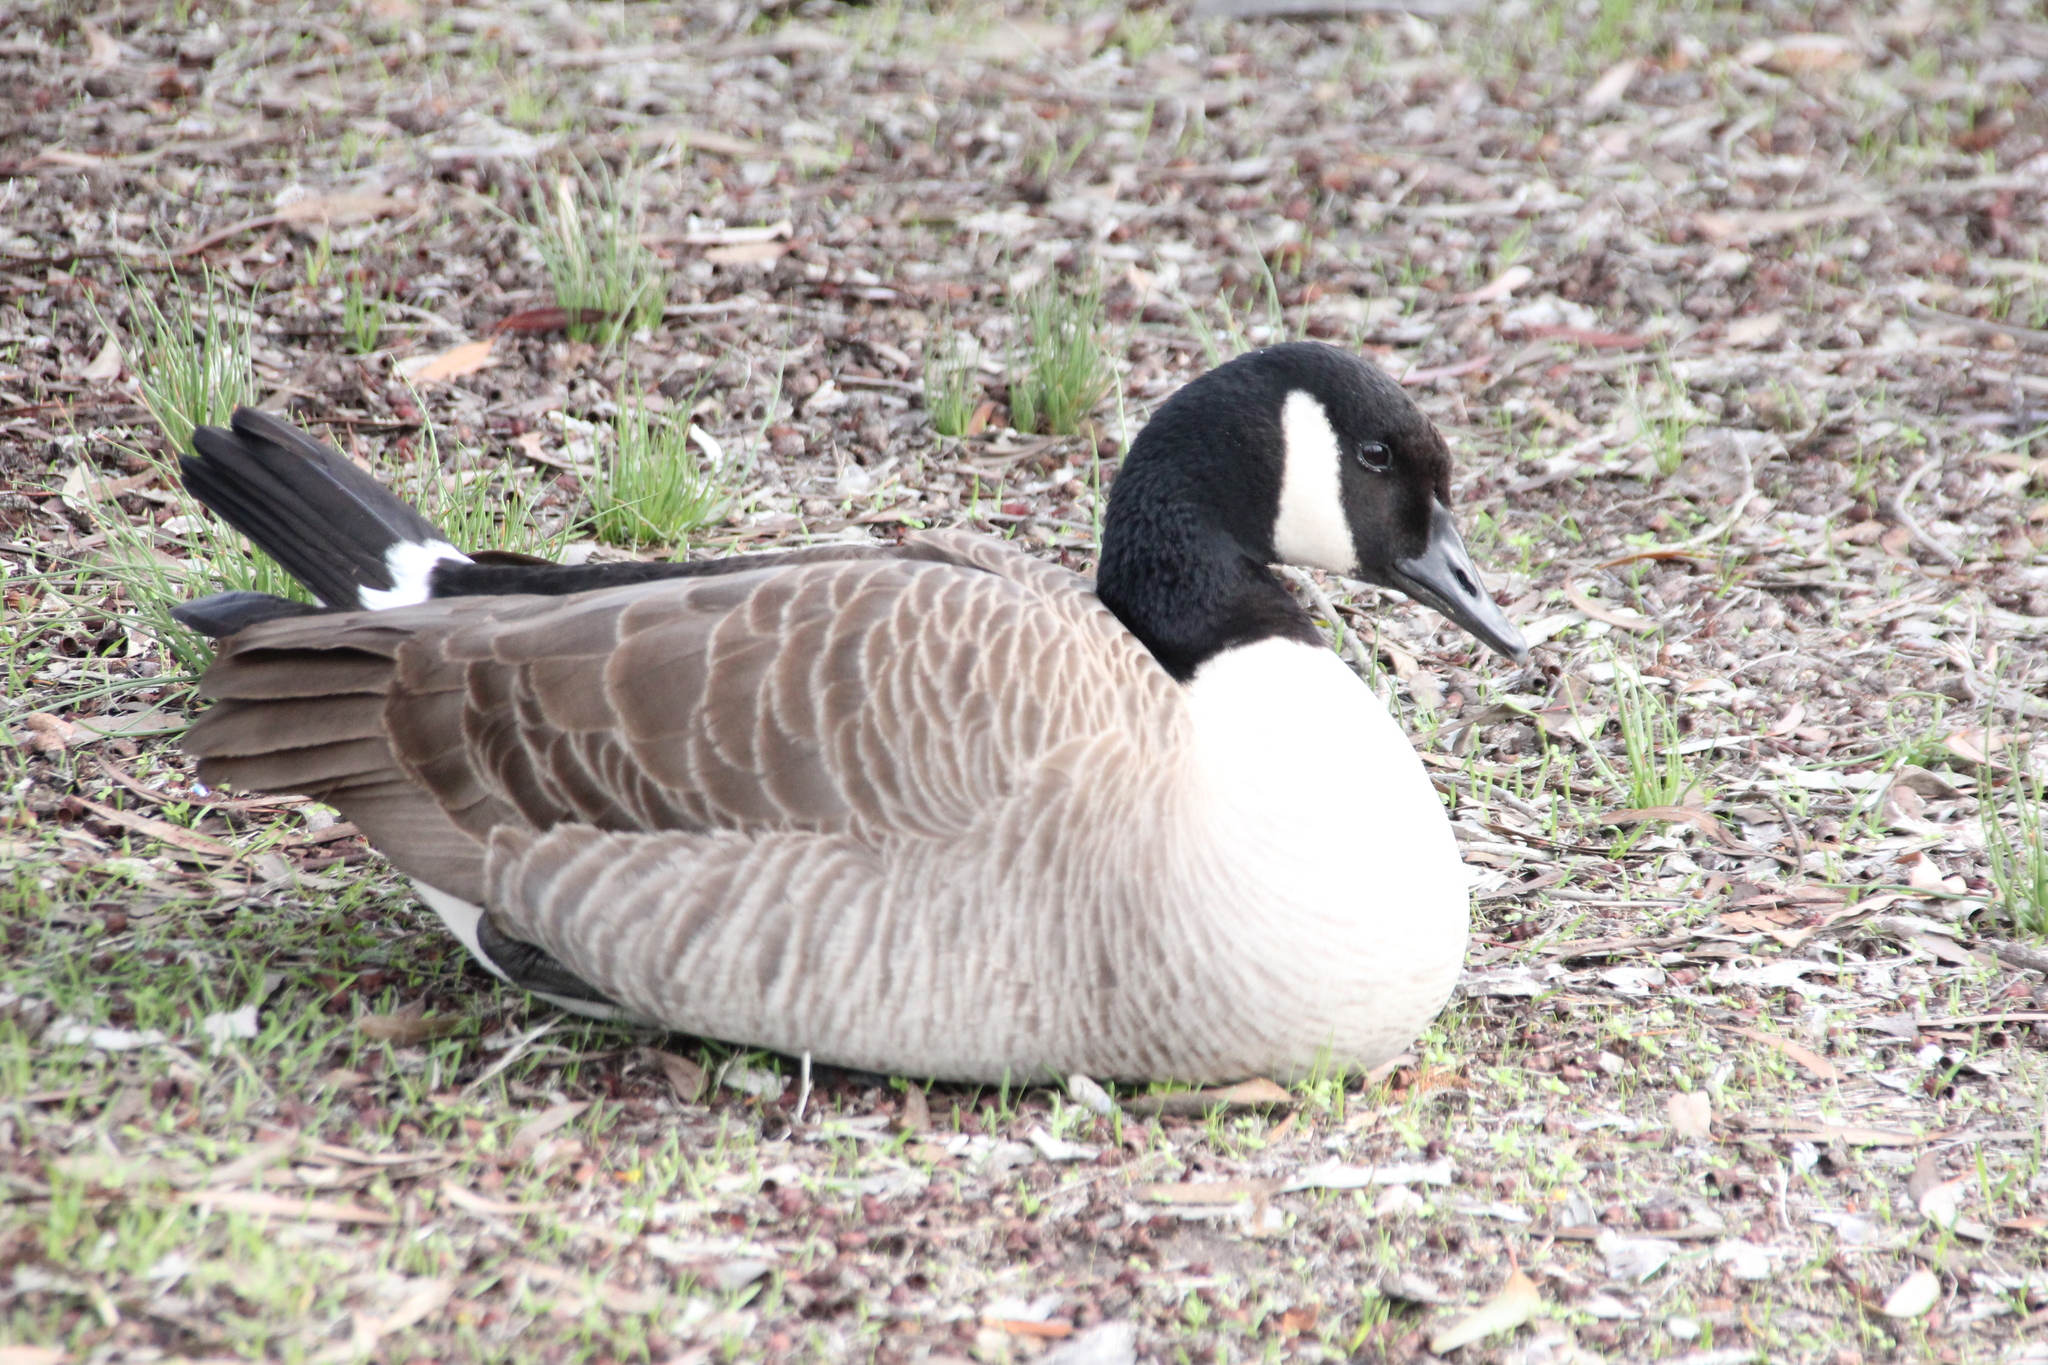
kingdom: Animalia
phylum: Chordata
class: Aves
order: Anseriformes
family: Anatidae
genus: Branta
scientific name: Branta canadensis
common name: Canada goose
